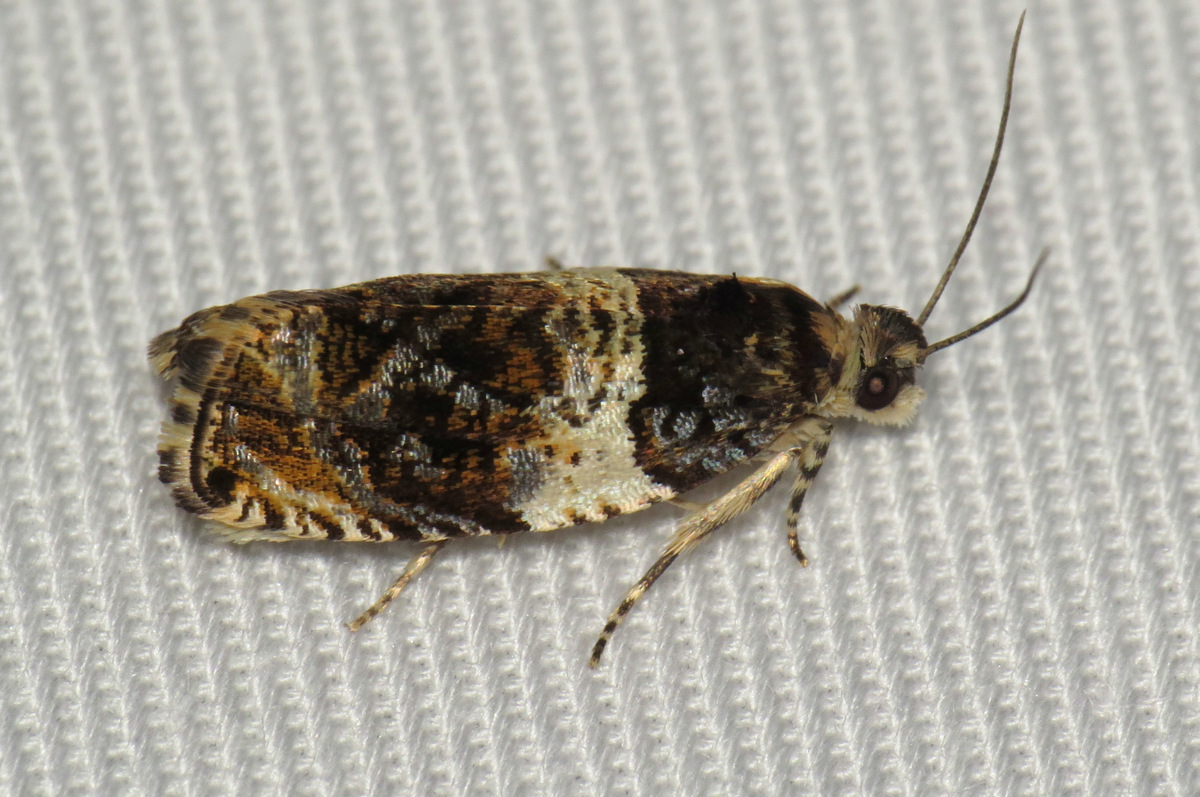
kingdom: Animalia
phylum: Arthropoda
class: Insecta
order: Lepidoptera
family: Tortricidae
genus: Olethreutes
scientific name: Olethreutes fasciatana
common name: Banded olethreutes moth
